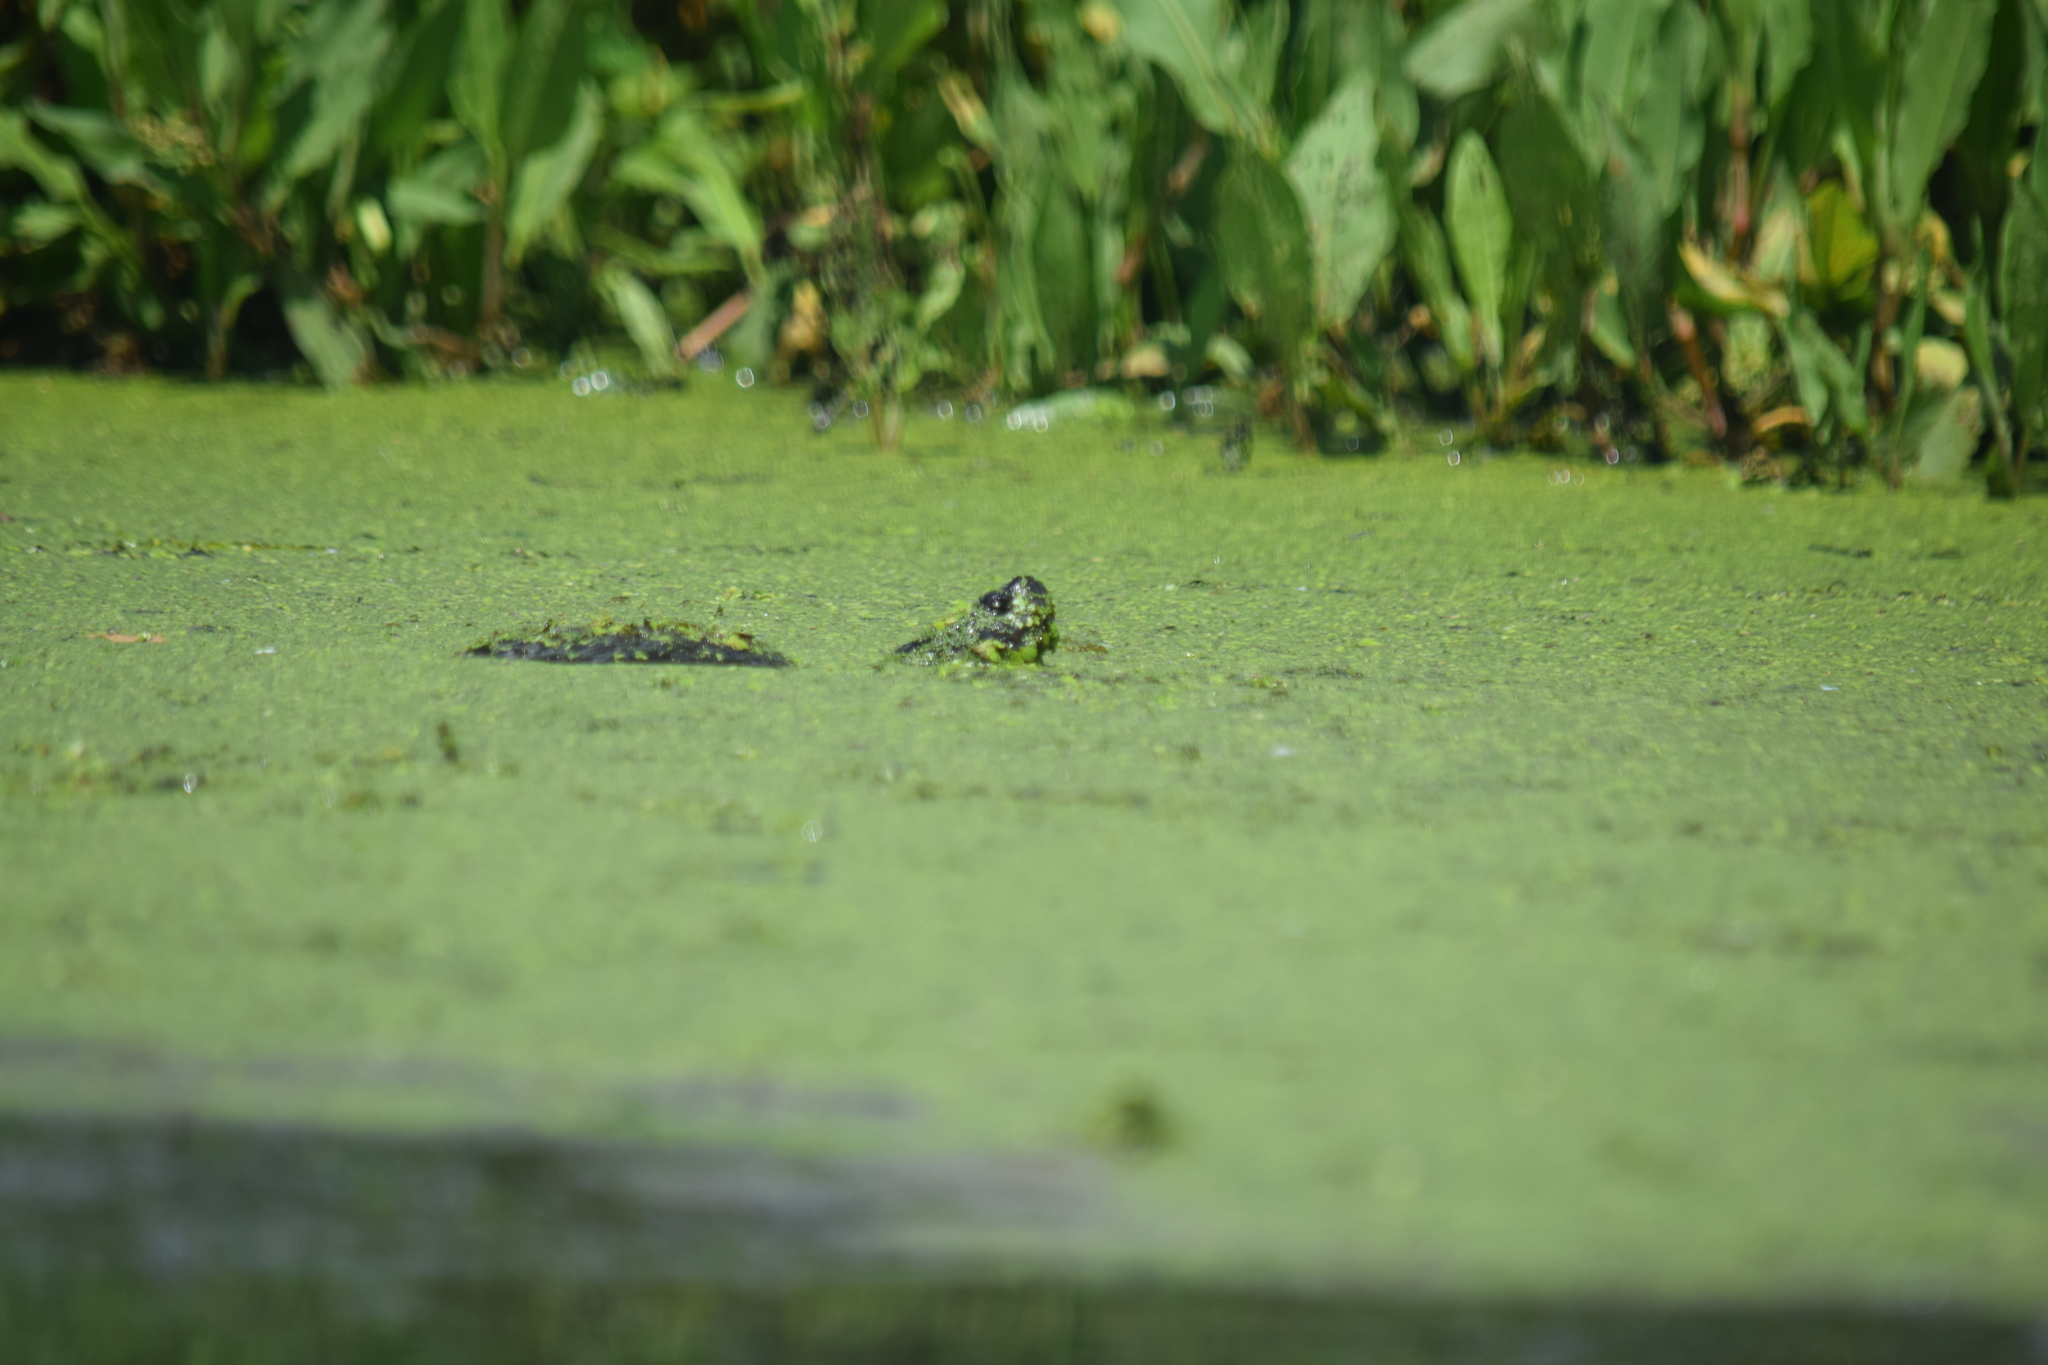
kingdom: Animalia
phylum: Chordata
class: Testudines
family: Emydidae
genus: Pseudemys
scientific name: Pseudemys rubriventris
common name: American red-bellied turtle
